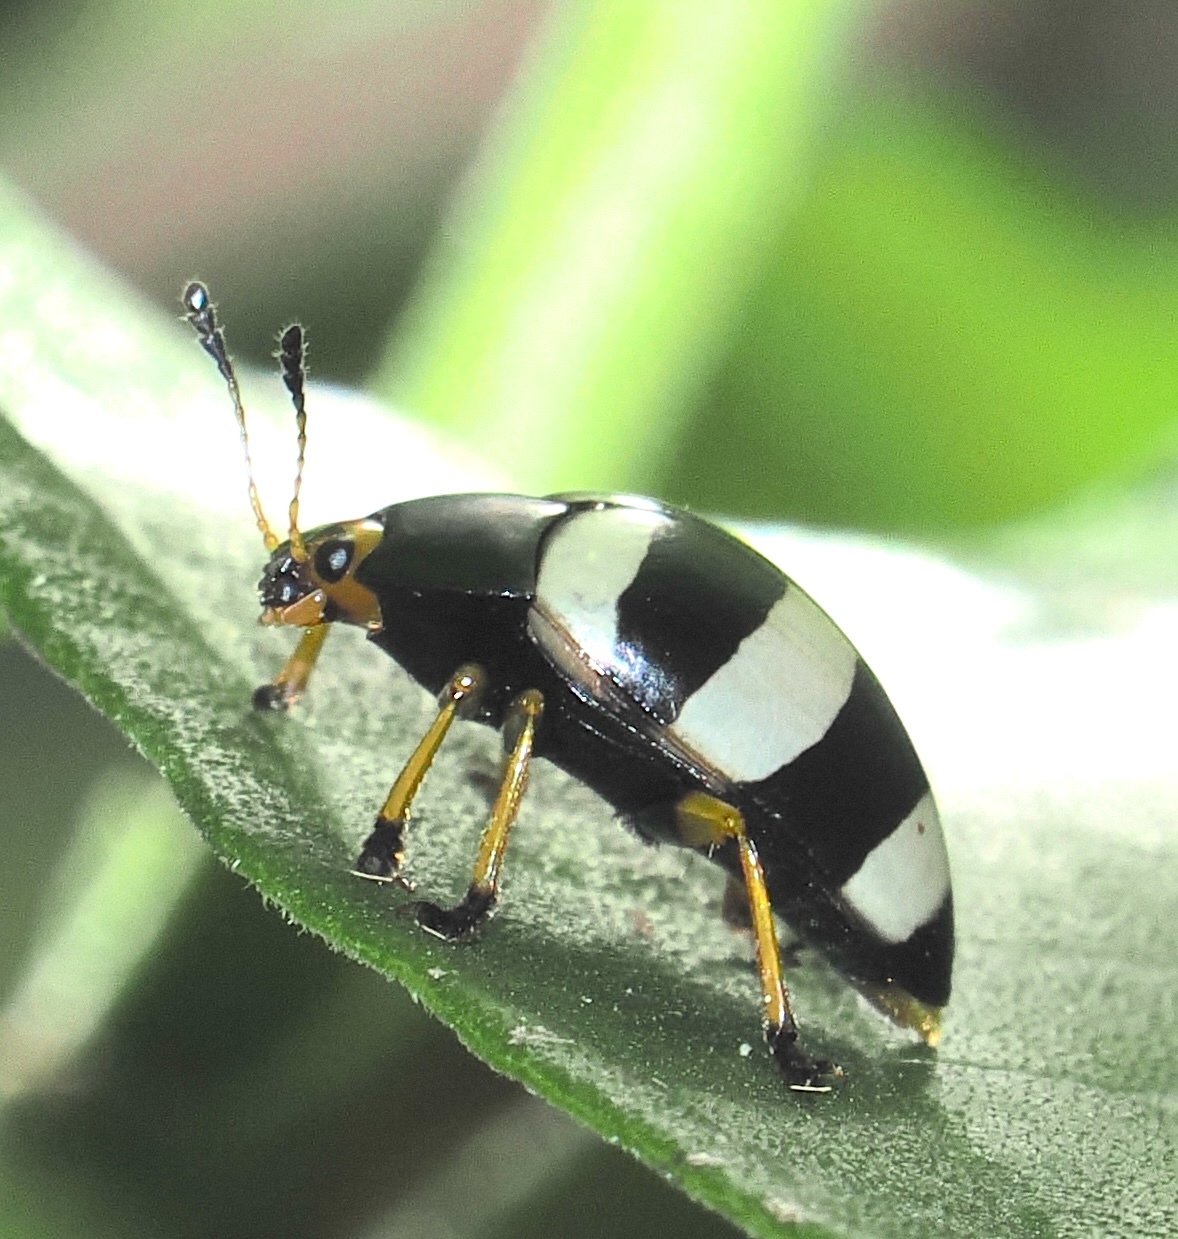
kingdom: Animalia
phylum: Arthropoda
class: Insecta
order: Coleoptera
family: Erotylidae
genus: Iphiclus
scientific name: Iphiclus
